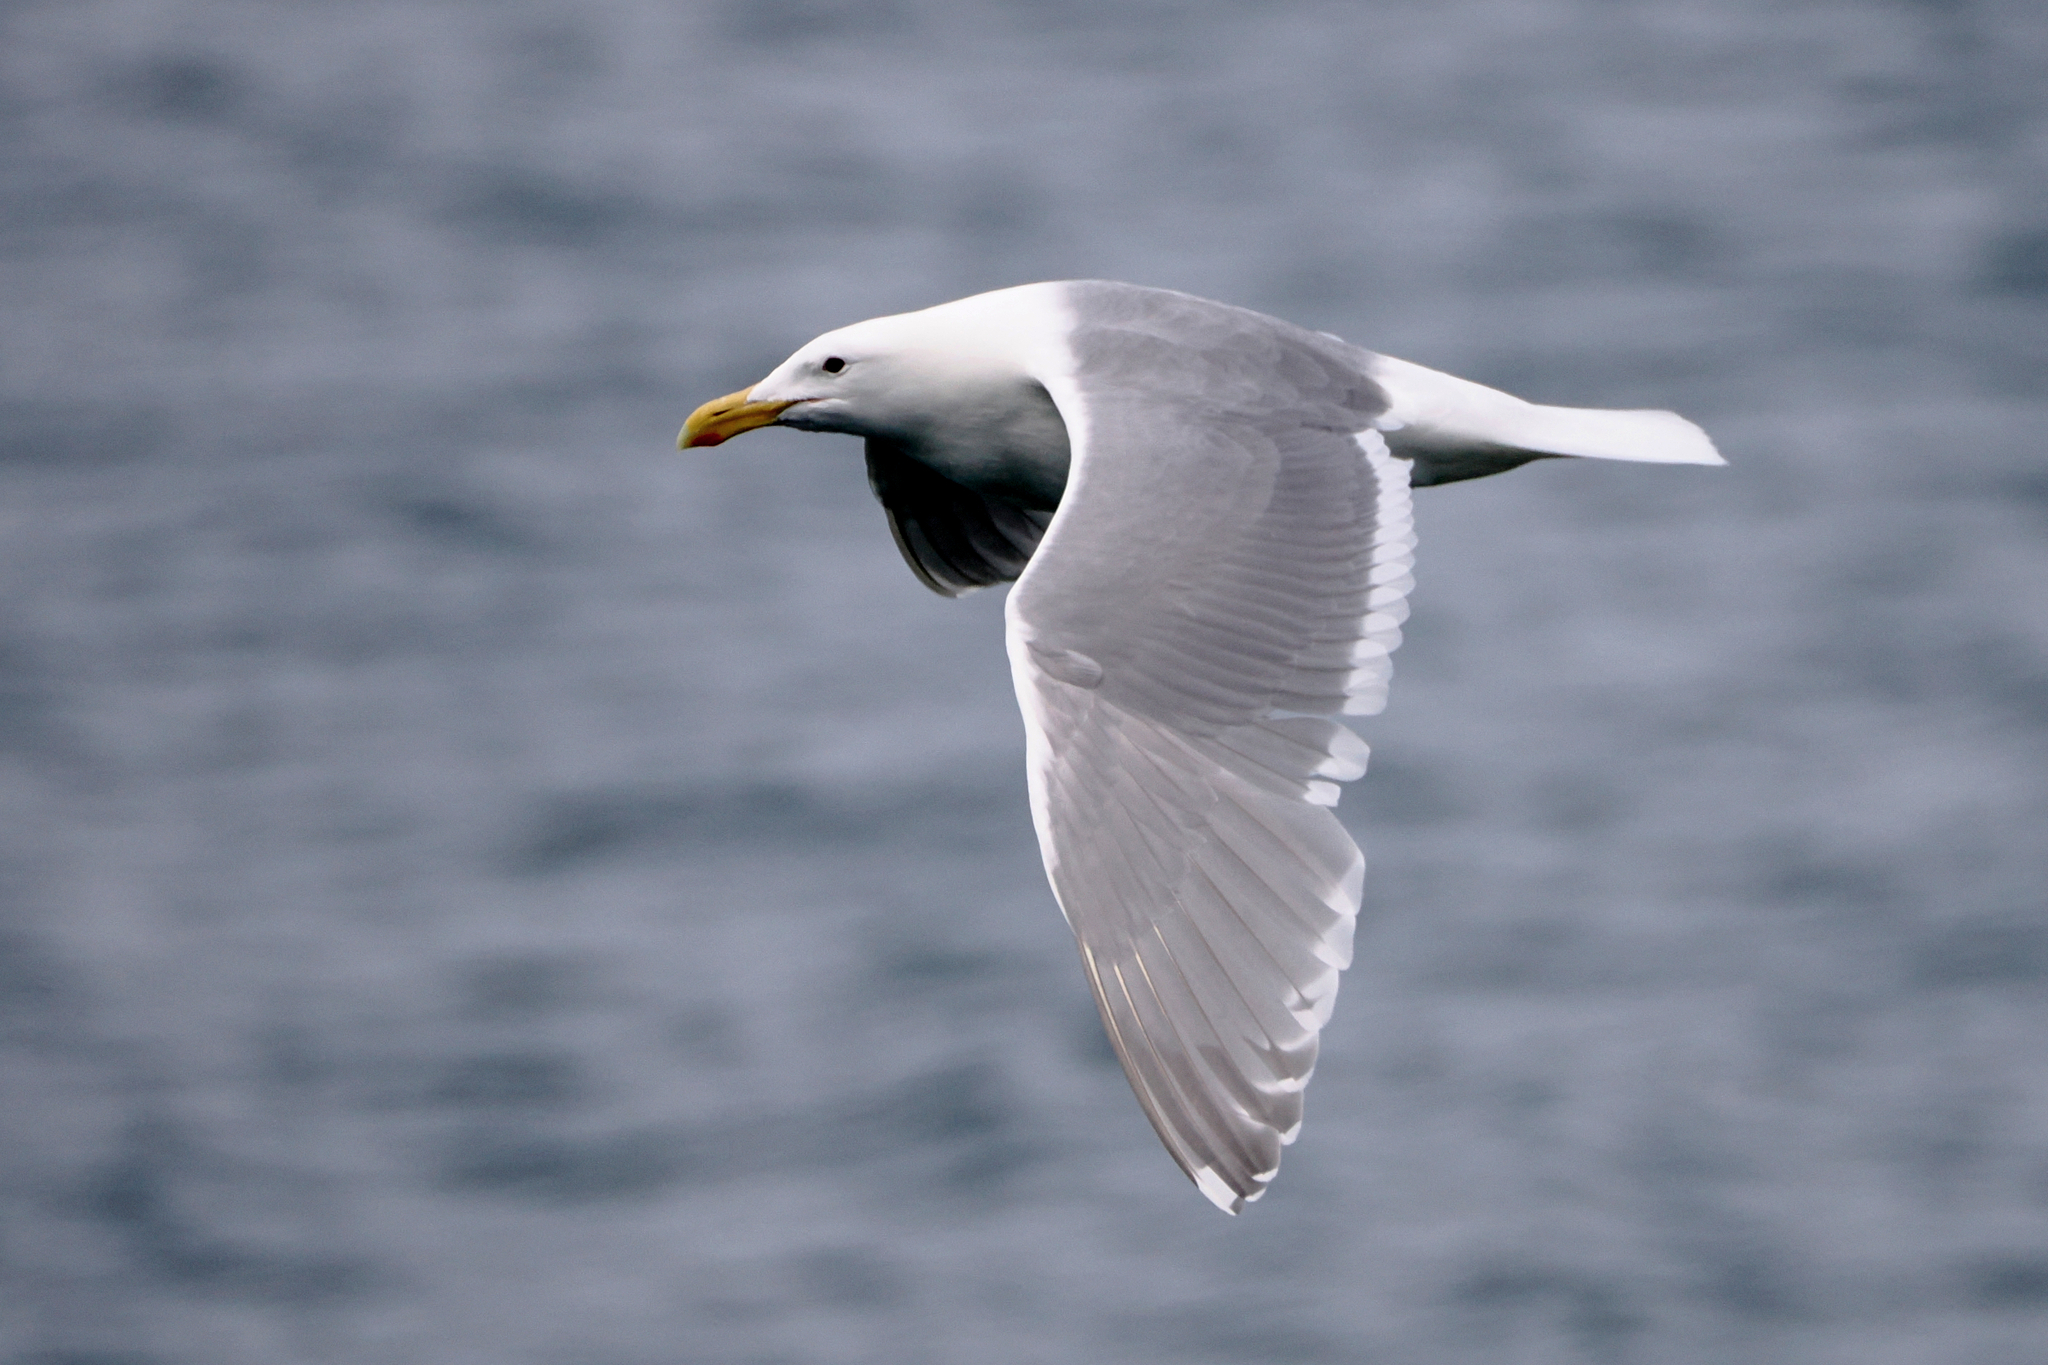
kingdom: Animalia
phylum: Chordata
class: Aves
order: Charadriiformes
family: Laridae
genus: Larus
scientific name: Larus glaucescens
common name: Glaucous-winged gull
